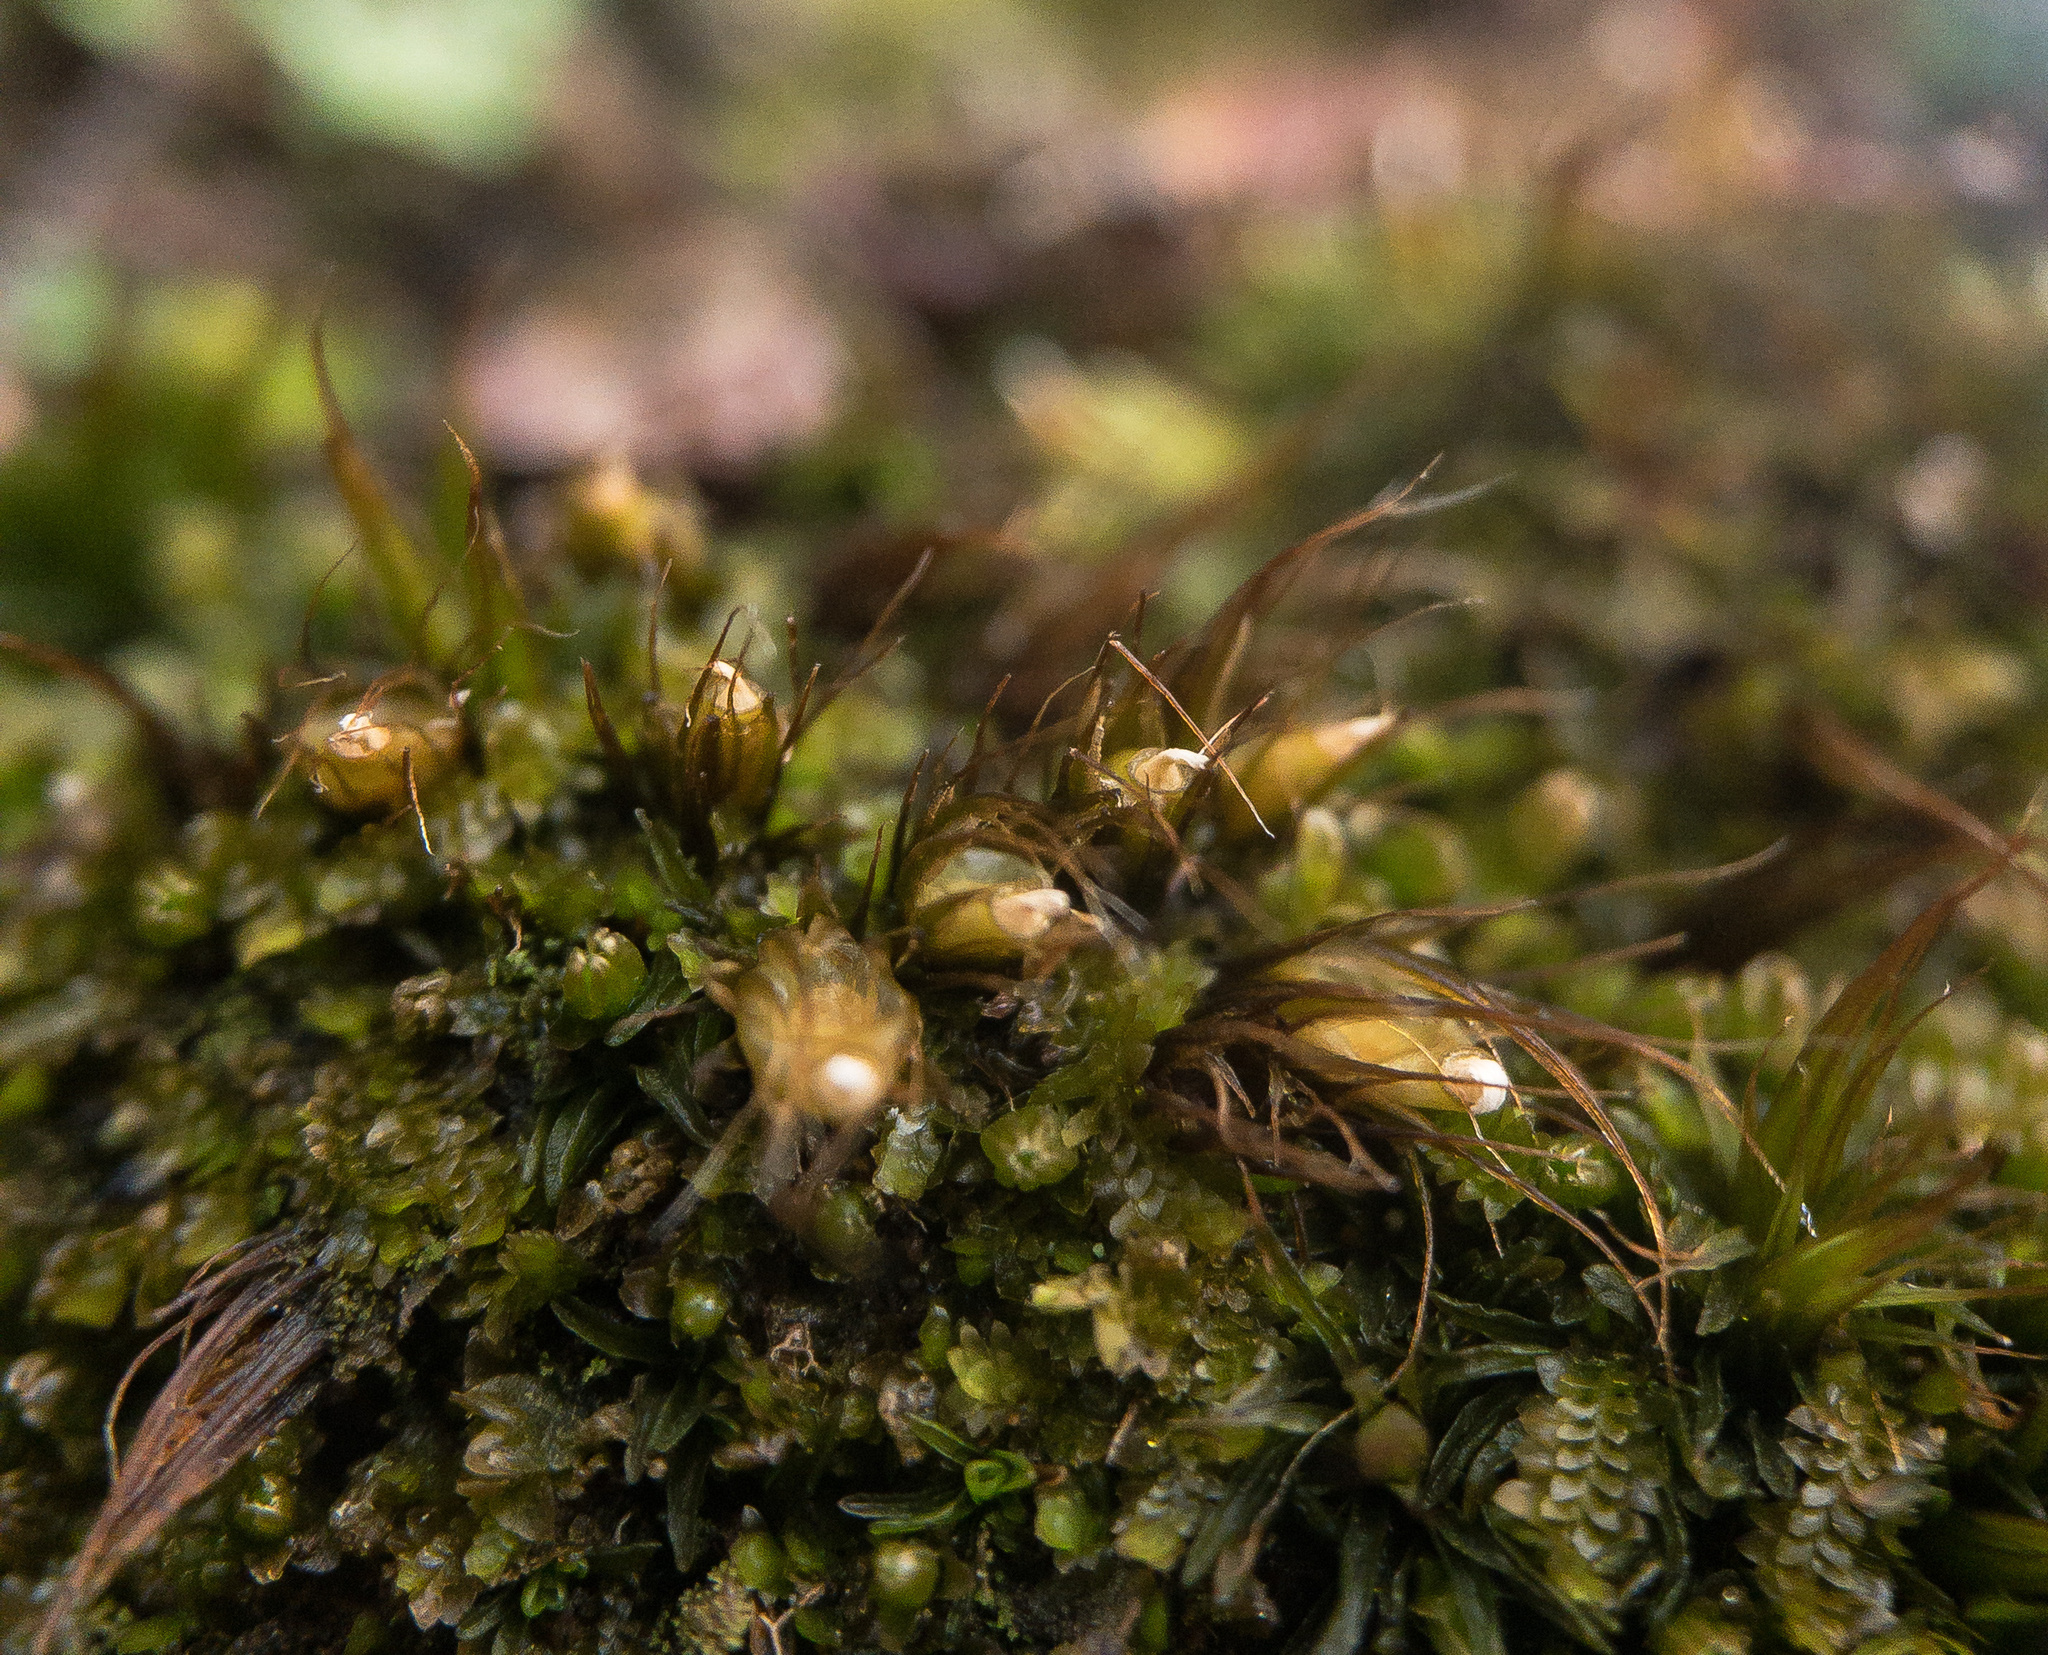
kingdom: Plantae
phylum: Bryophyta
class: Bryopsida
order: Diphysciales
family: Diphysciaceae
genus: Diphyscium
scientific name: Diphyscium foliosum
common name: Nut moss
